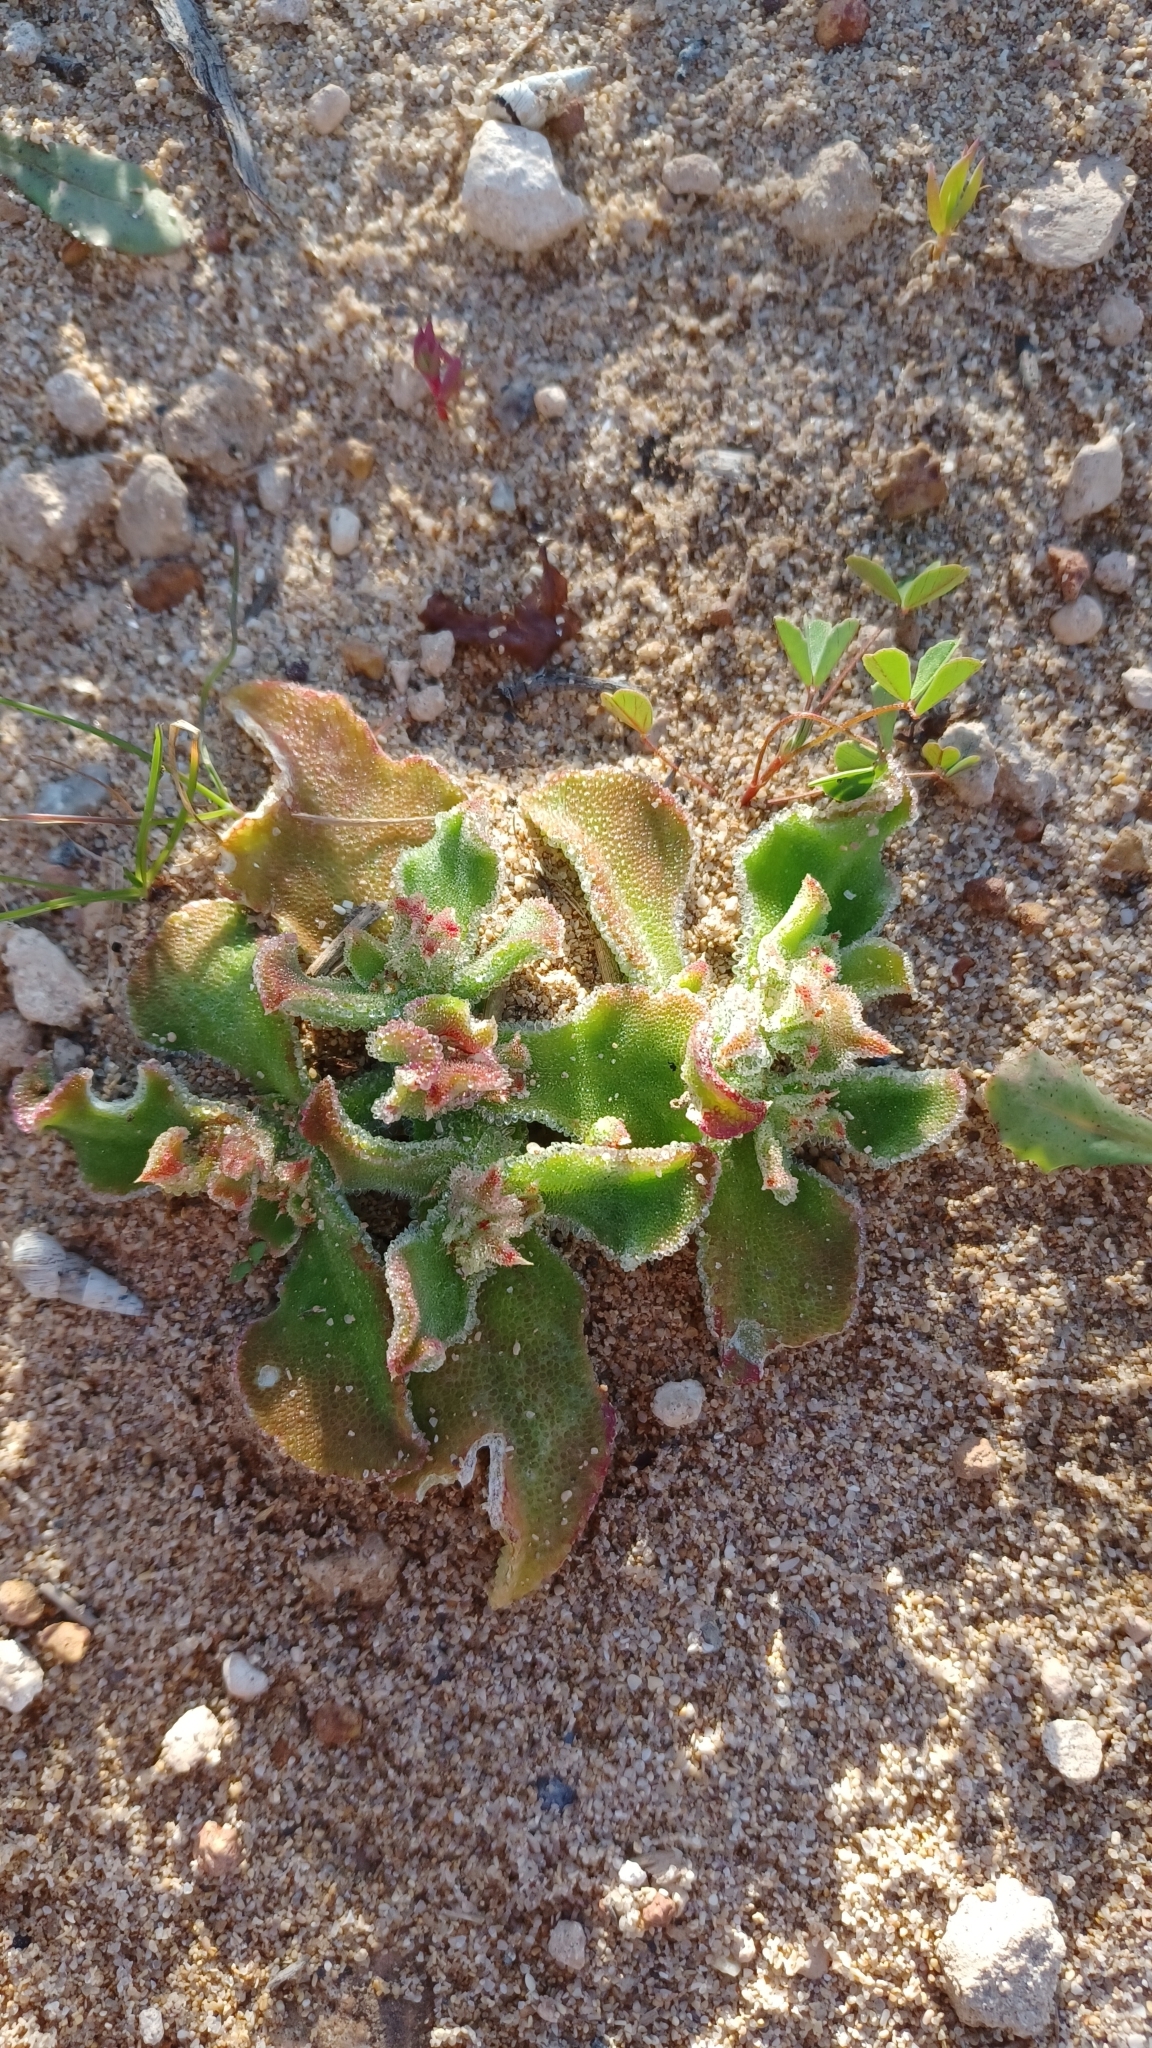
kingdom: Plantae
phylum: Tracheophyta
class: Magnoliopsida
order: Caryophyllales
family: Aizoaceae
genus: Mesembryanthemum
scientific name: Mesembryanthemum crystallinum
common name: Common iceplant
